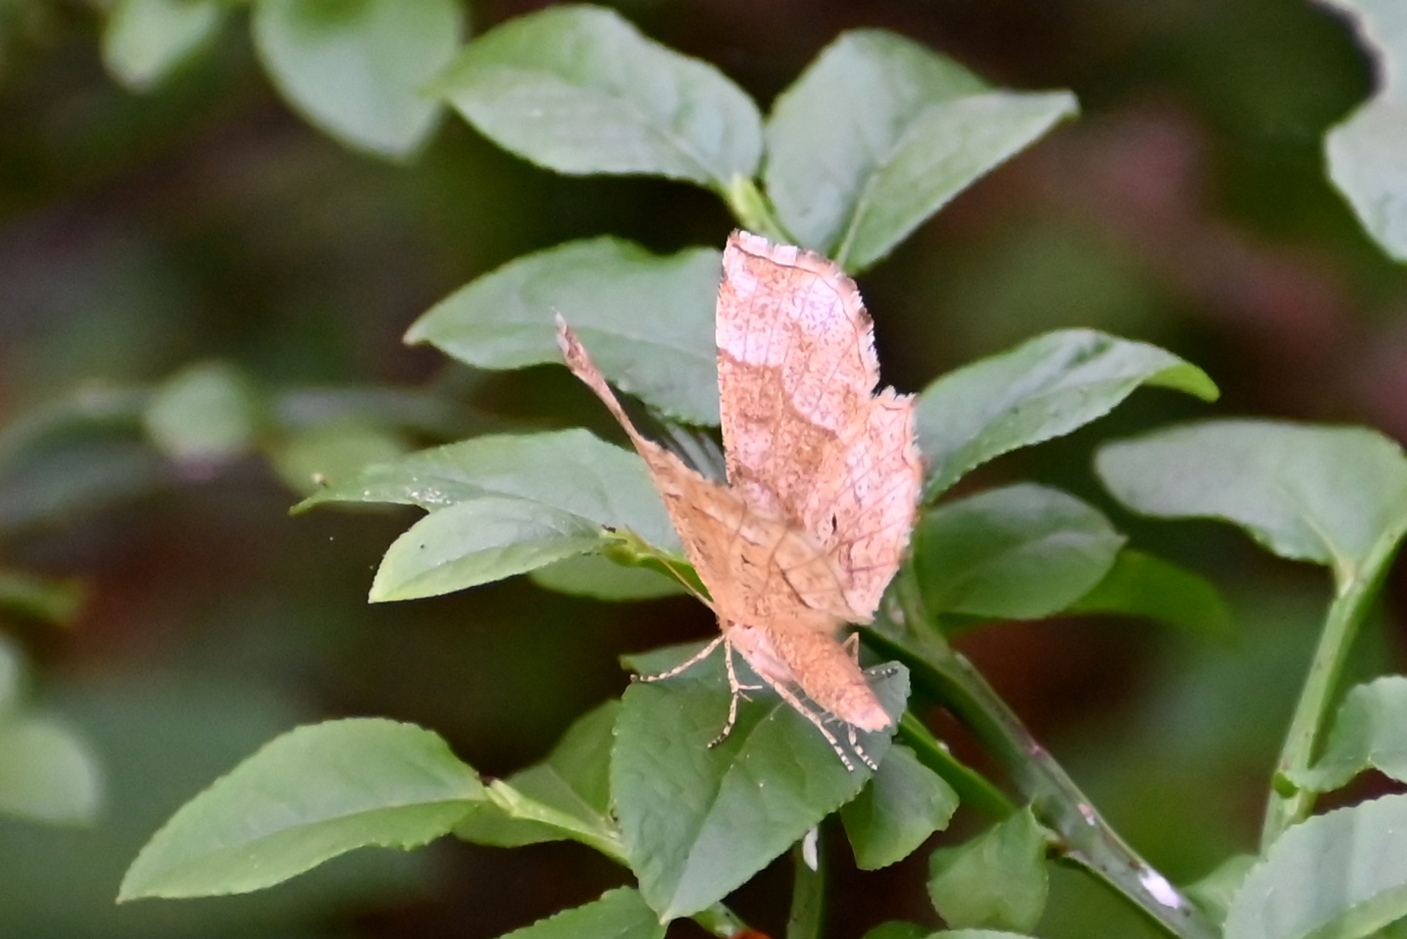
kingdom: Animalia
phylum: Arthropoda
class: Insecta
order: Lepidoptera
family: Geometridae
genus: Cepphis
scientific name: Cepphis advenaria
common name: Little thorn
